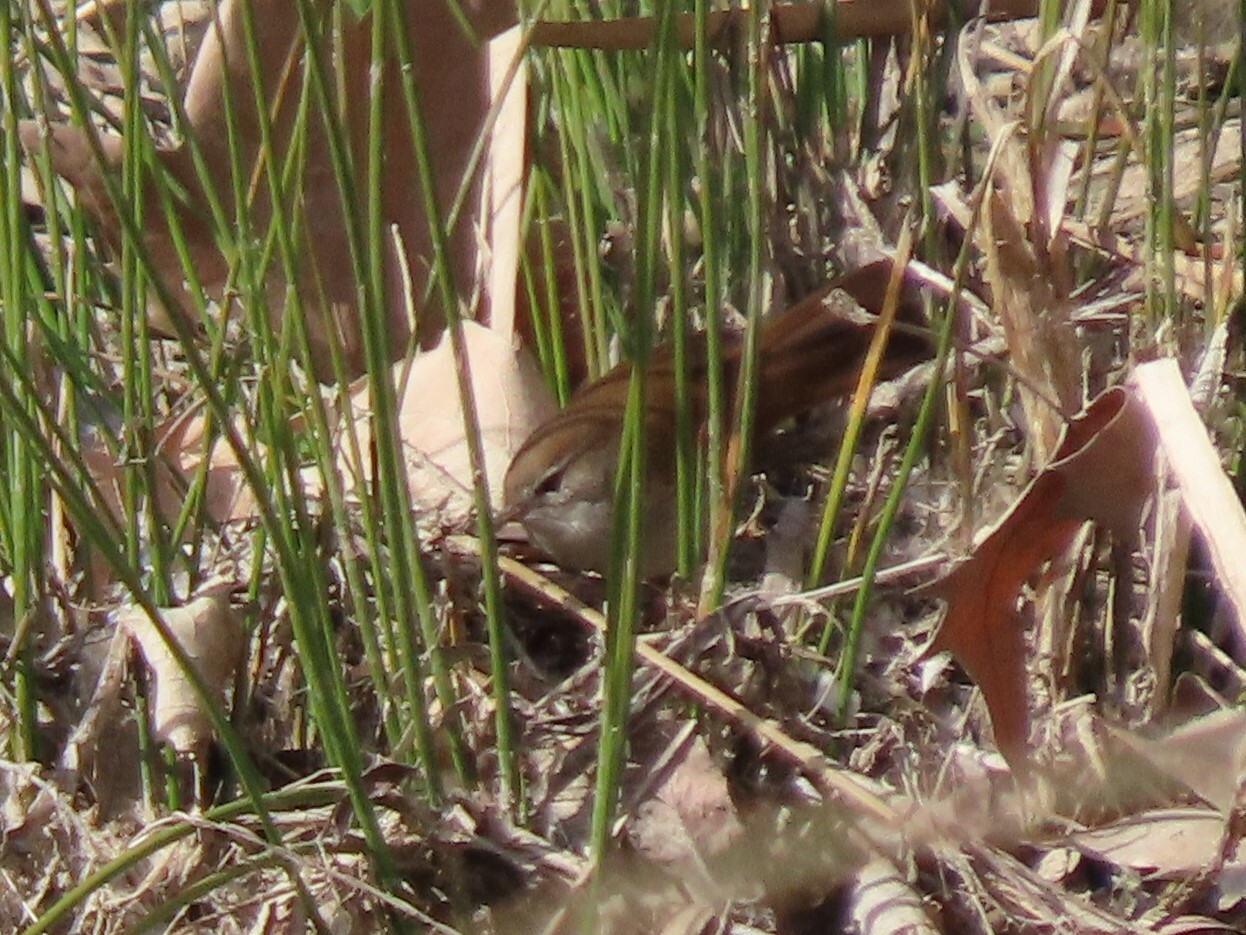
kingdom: Animalia
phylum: Chordata
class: Aves
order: Passeriformes
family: Cettiidae
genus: Cettia
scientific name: Cettia cetti
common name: Cetti's warbler
